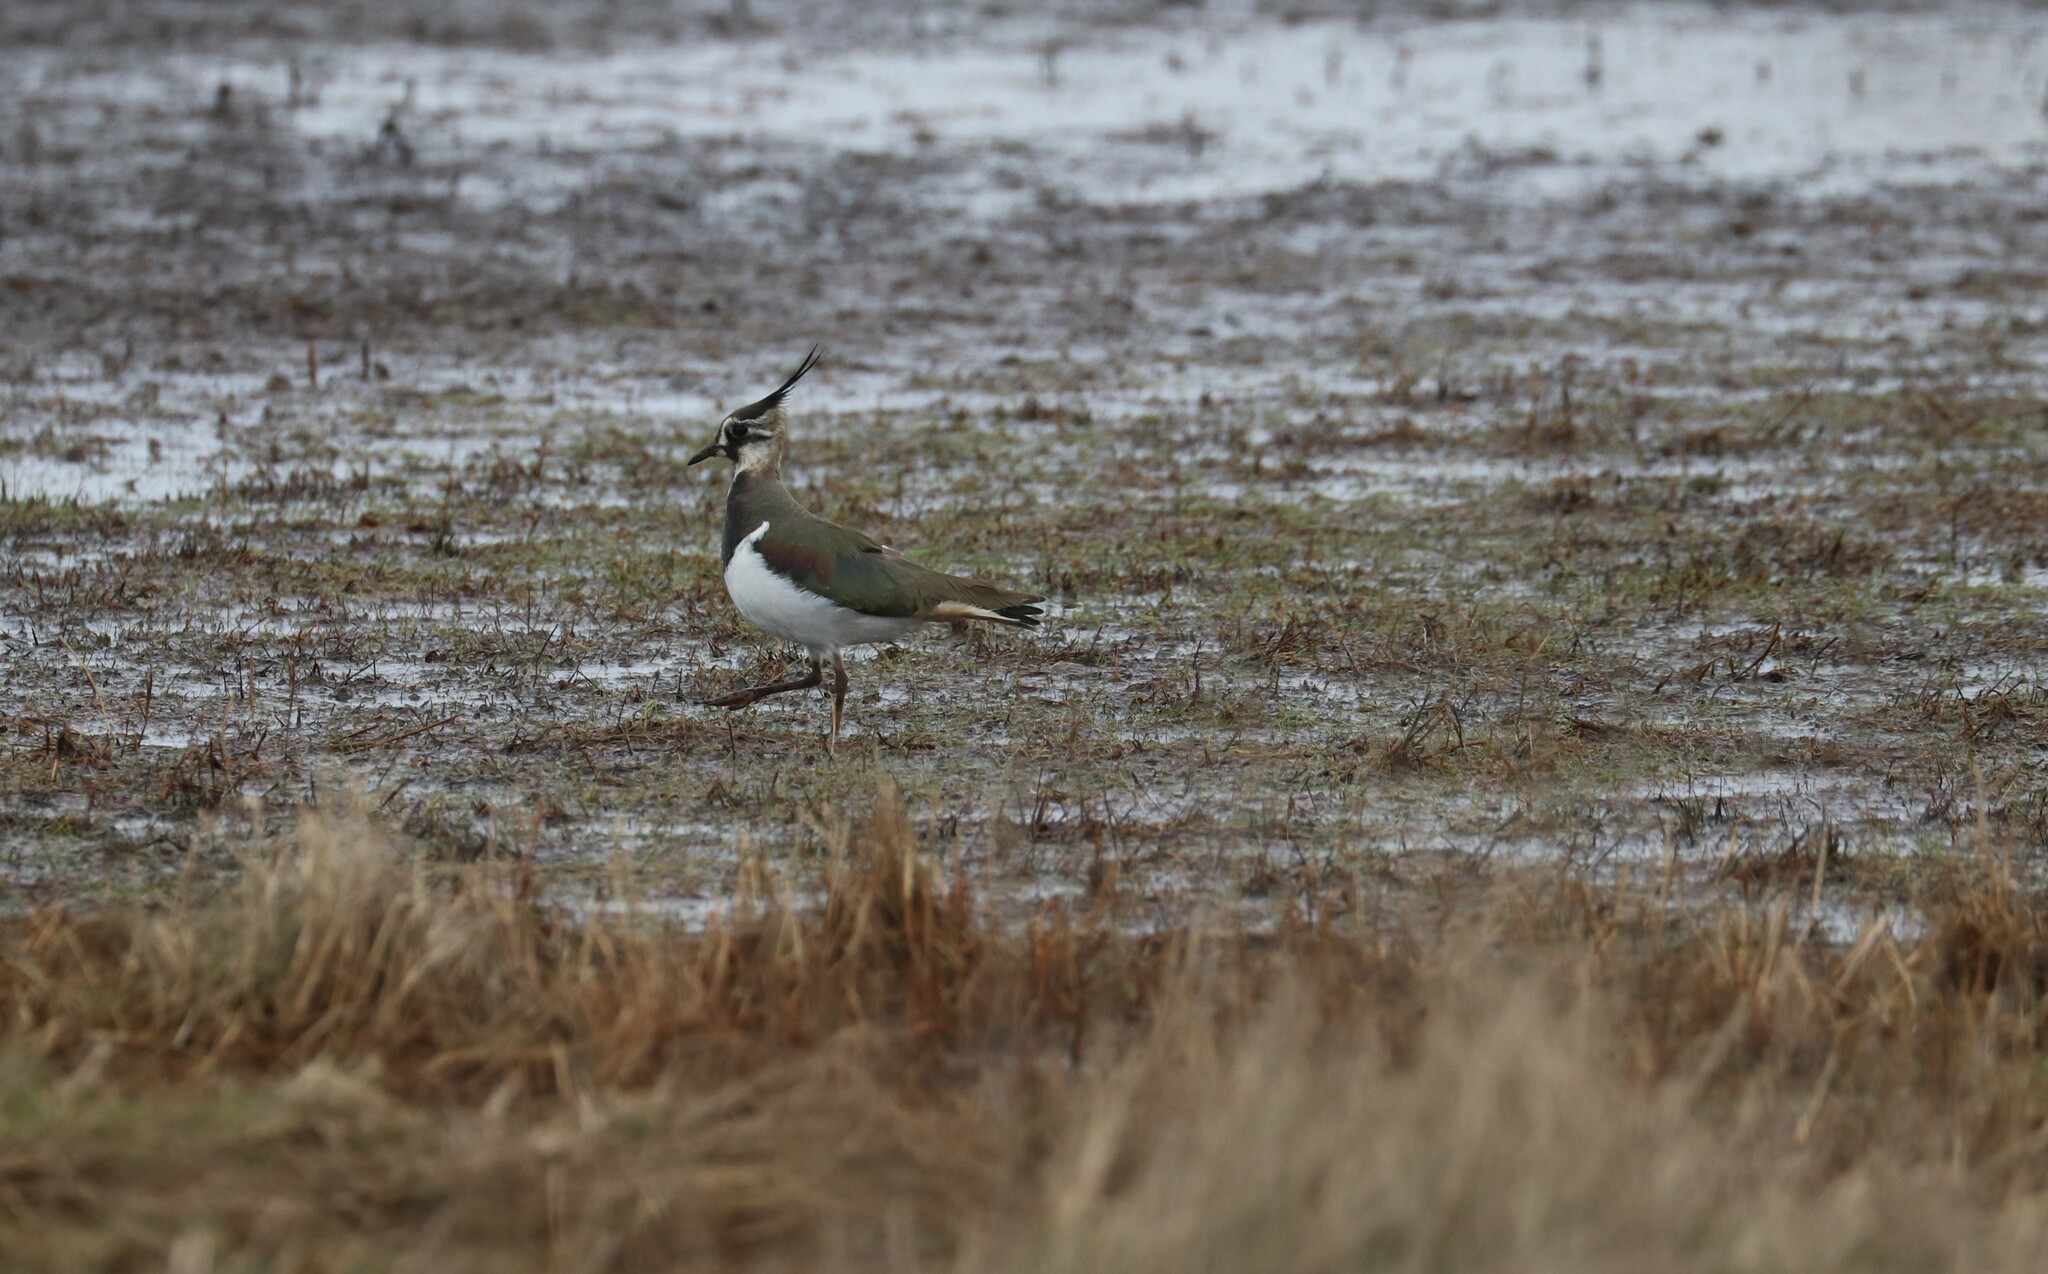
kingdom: Animalia
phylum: Chordata
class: Aves
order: Charadriiformes
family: Charadriidae
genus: Vanellus
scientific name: Vanellus vanellus
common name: Northern lapwing
